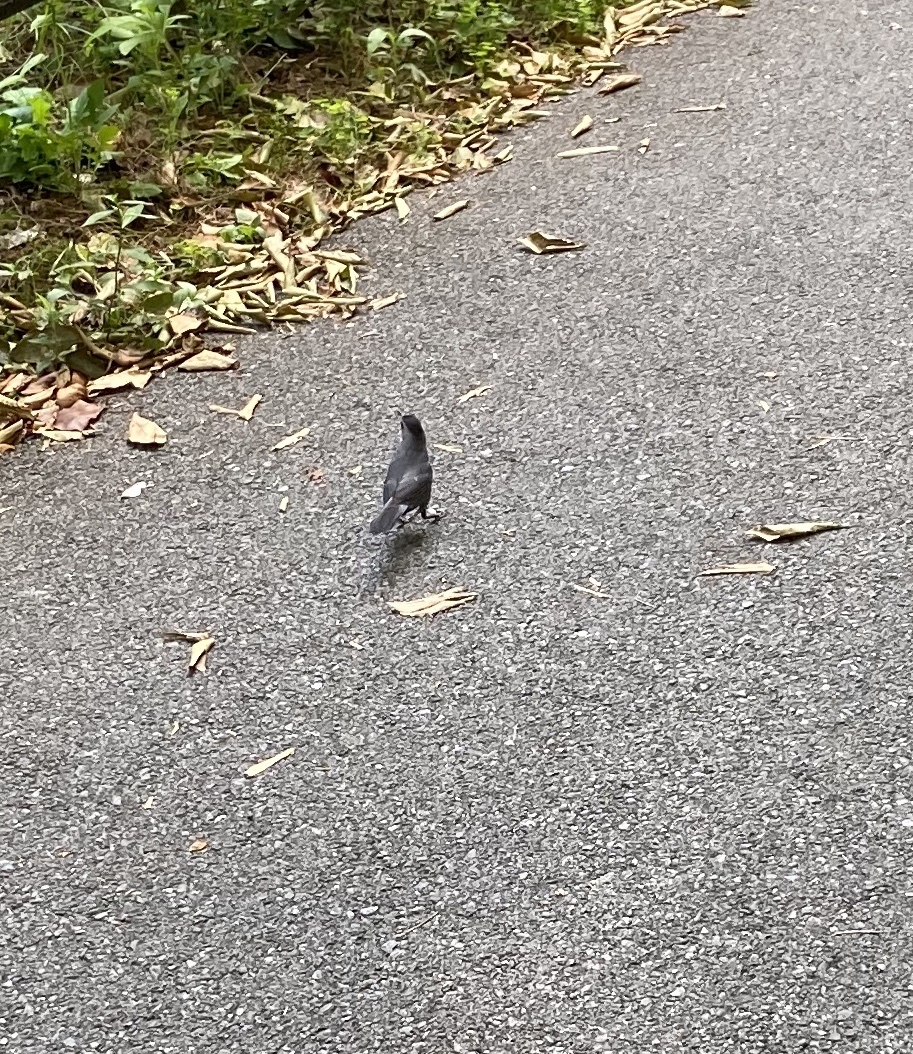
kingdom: Animalia
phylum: Chordata
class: Aves
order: Passeriformes
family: Mimidae
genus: Dumetella
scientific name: Dumetella carolinensis
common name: Gray catbird
